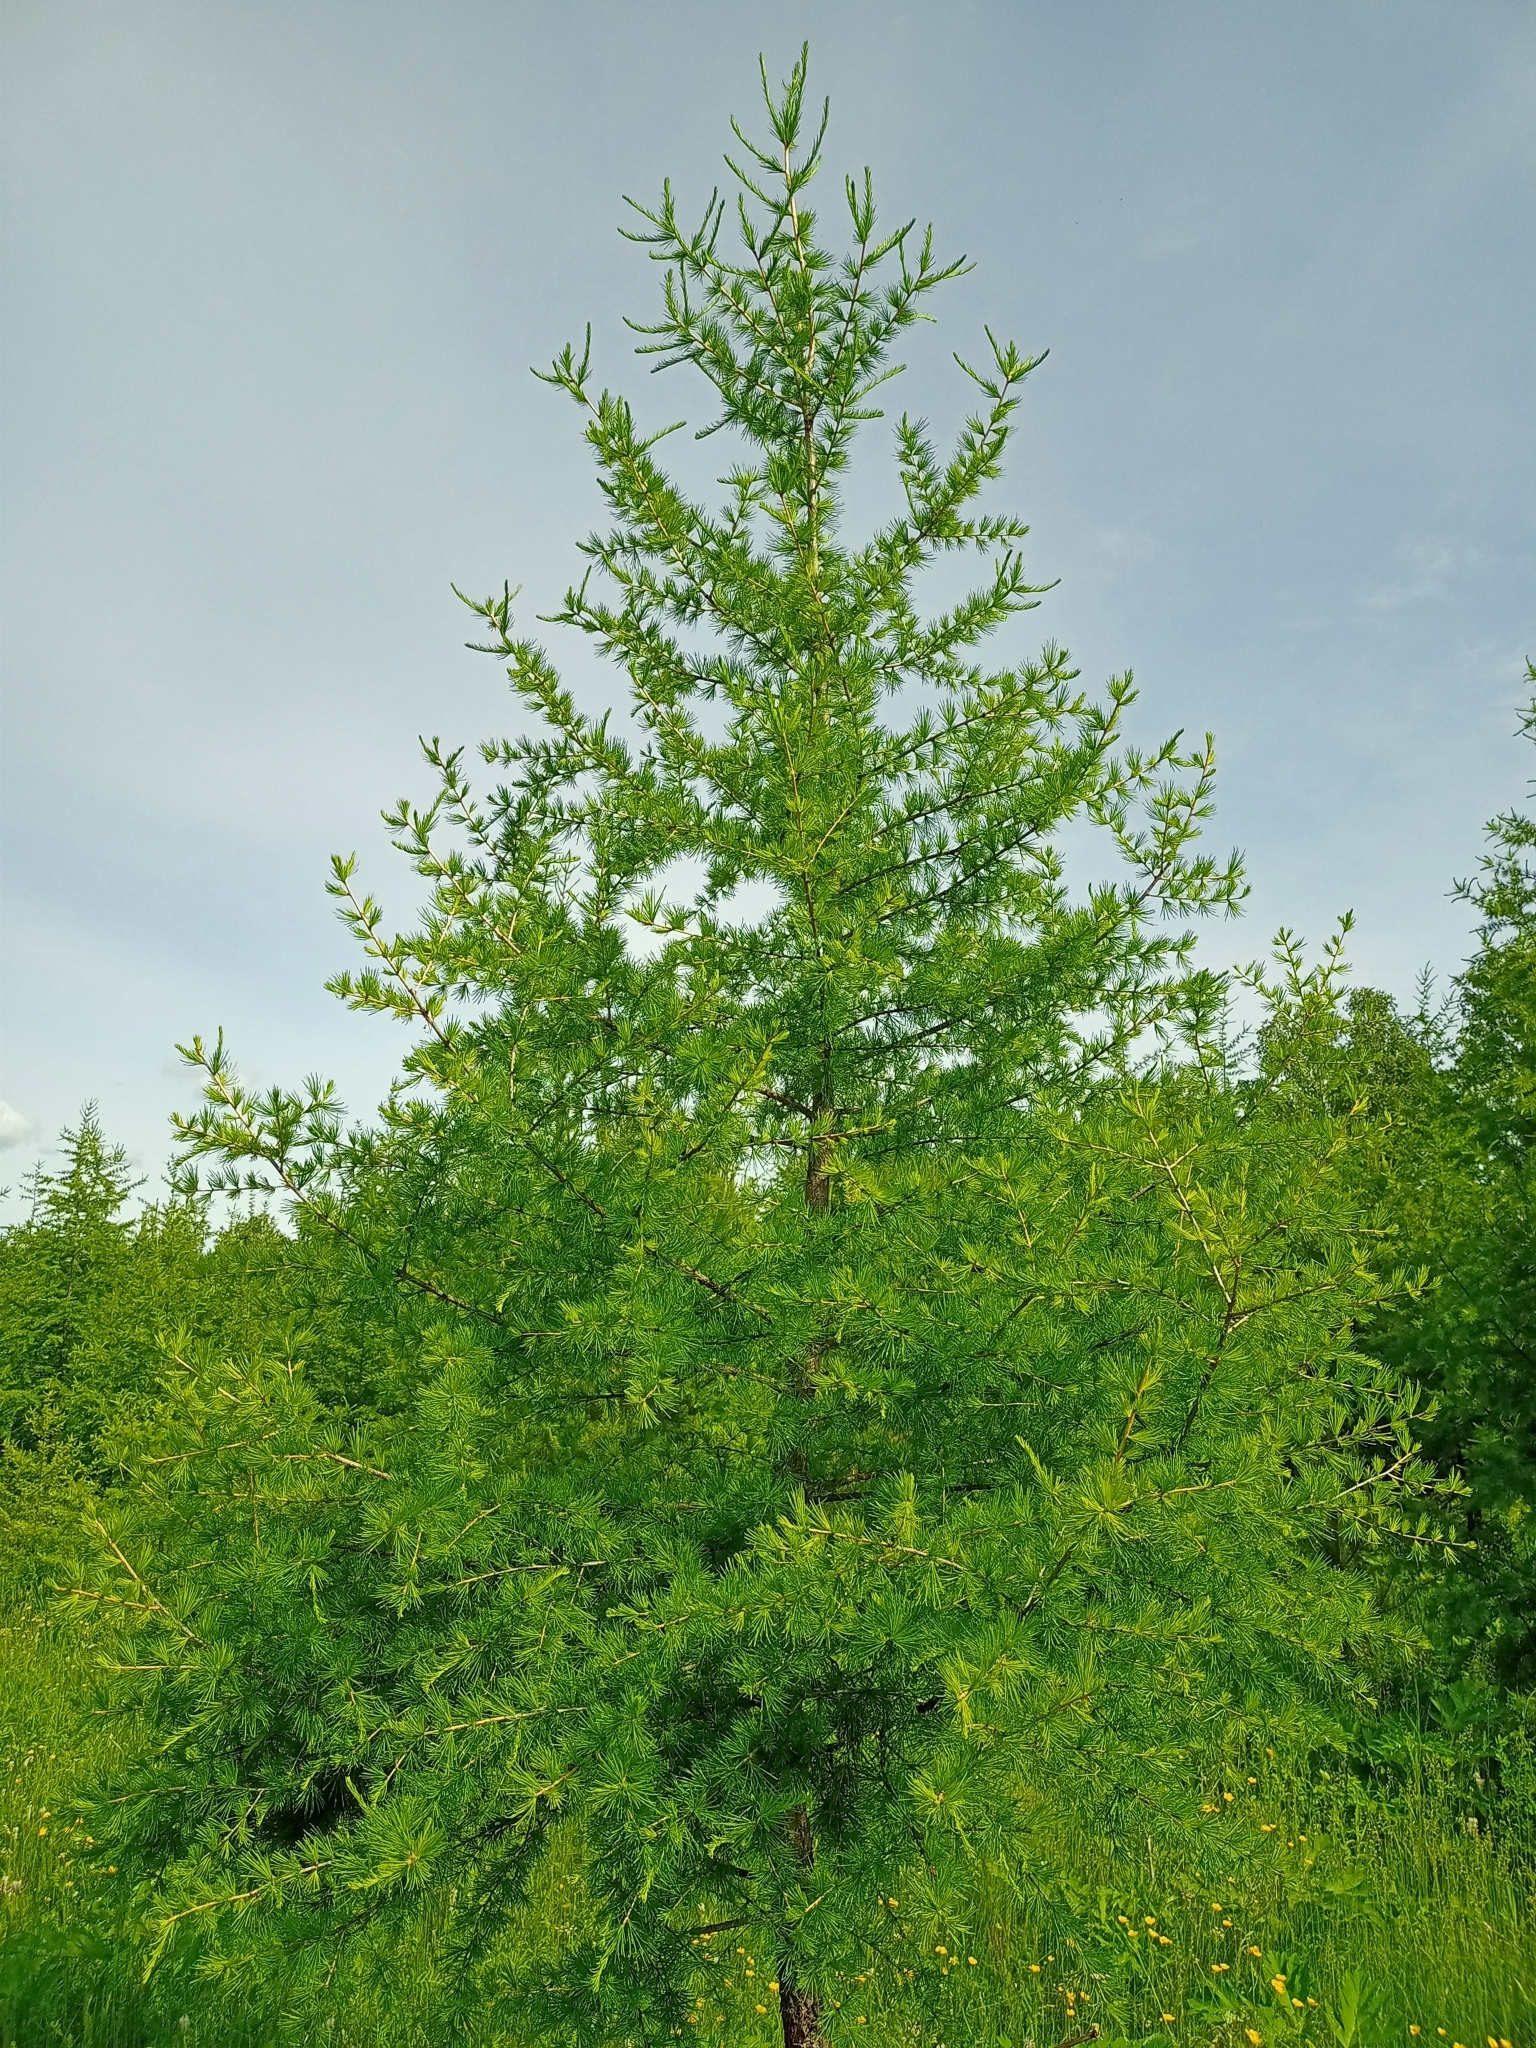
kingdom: Plantae
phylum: Tracheophyta
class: Pinopsida
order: Pinales
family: Pinaceae
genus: Larix
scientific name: Larix sibirica
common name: Siberian larch
